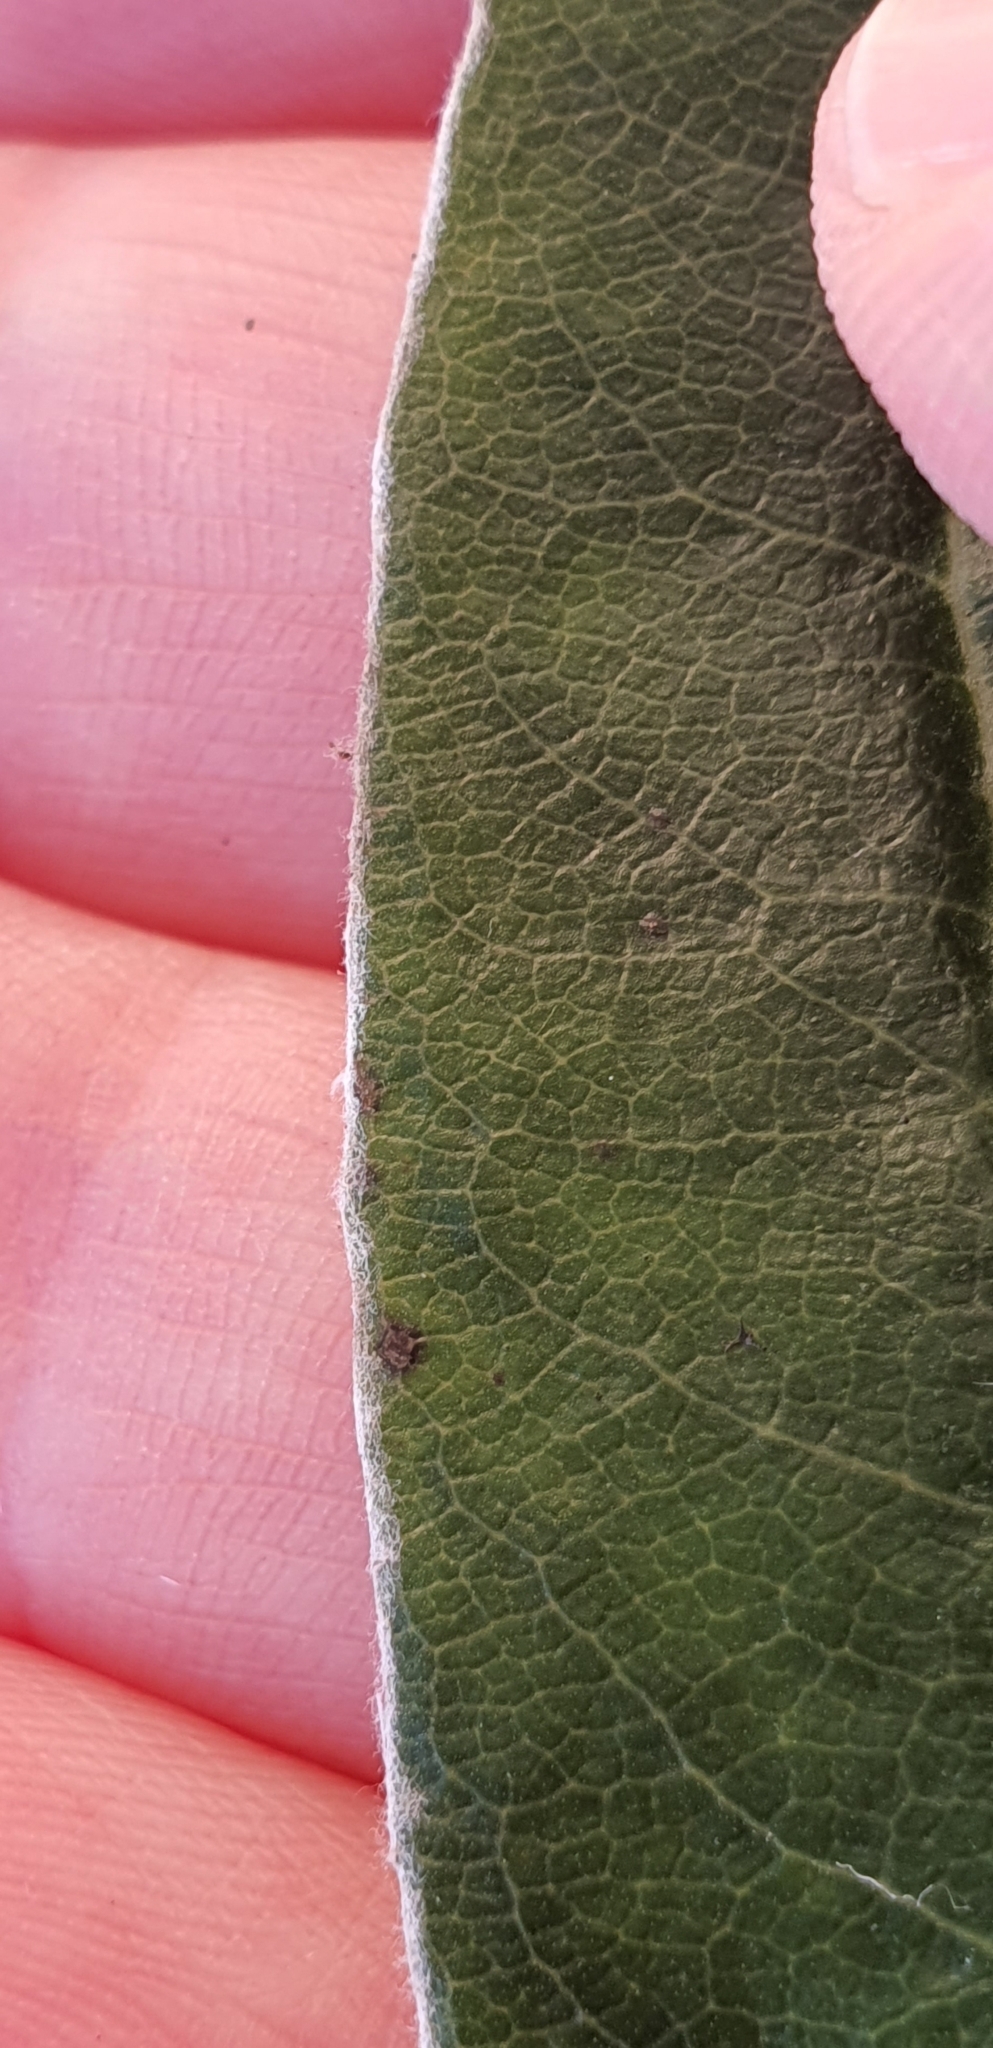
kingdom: Plantae
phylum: Tracheophyta
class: Magnoliopsida
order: Asterales
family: Asteraceae
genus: Brachyglottis
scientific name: Brachyglottis laxifolia
